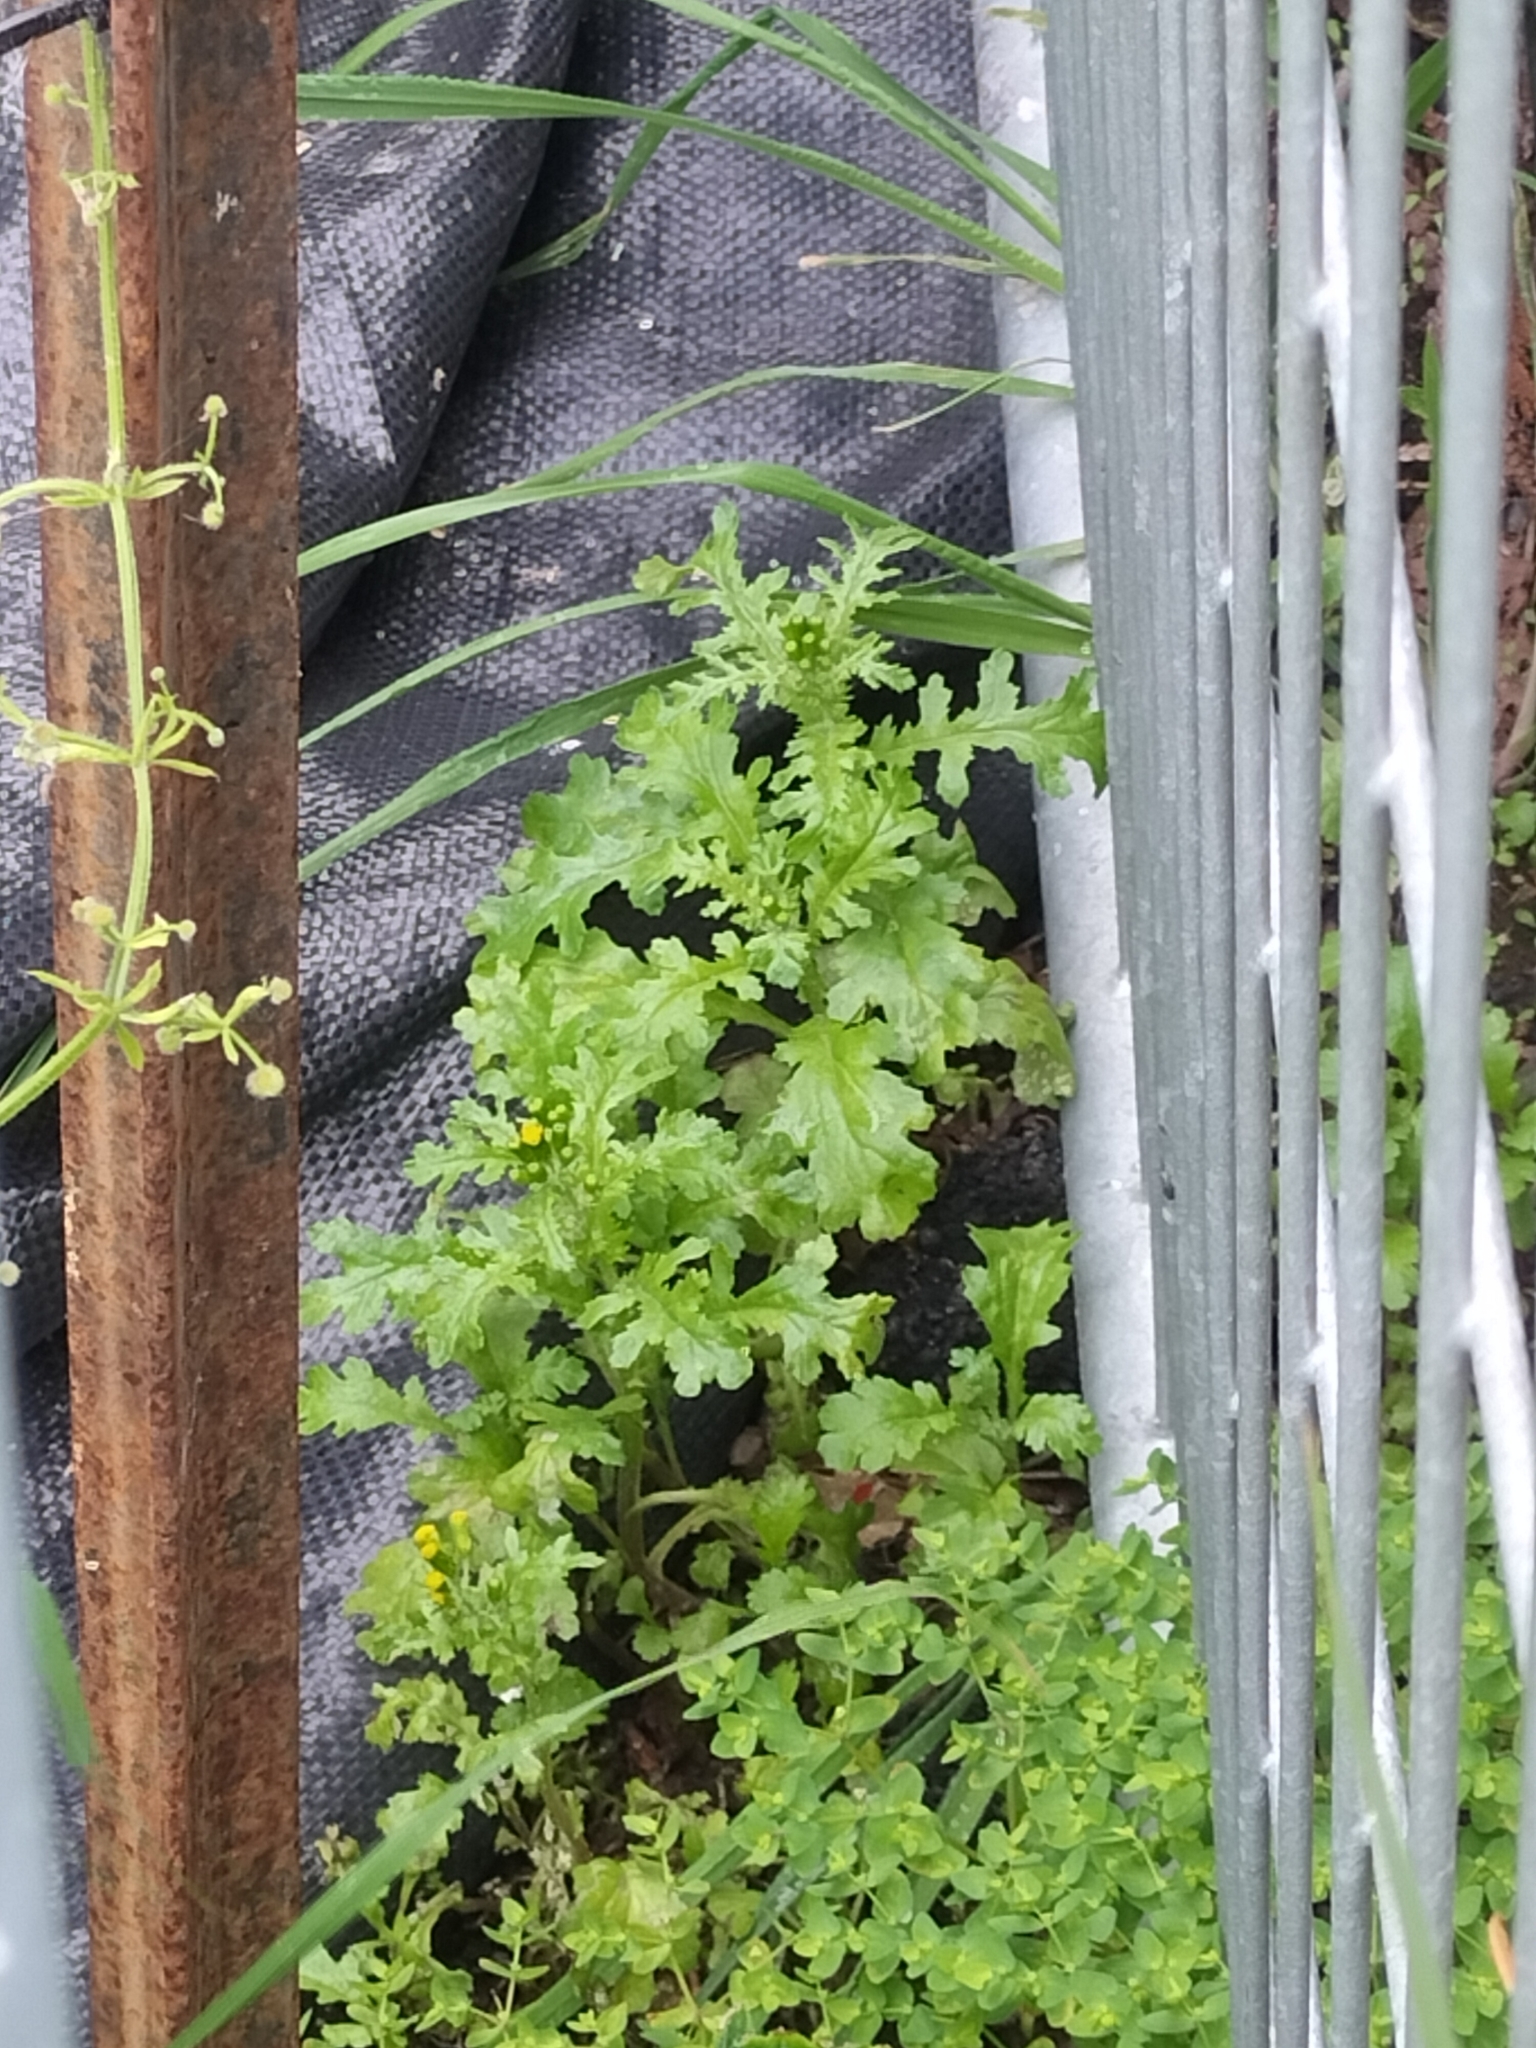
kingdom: Plantae
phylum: Tracheophyta
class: Magnoliopsida
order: Asterales
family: Asteraceae
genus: Senecio
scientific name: Senecio vulgaris
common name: Old-man-in-the-spring
